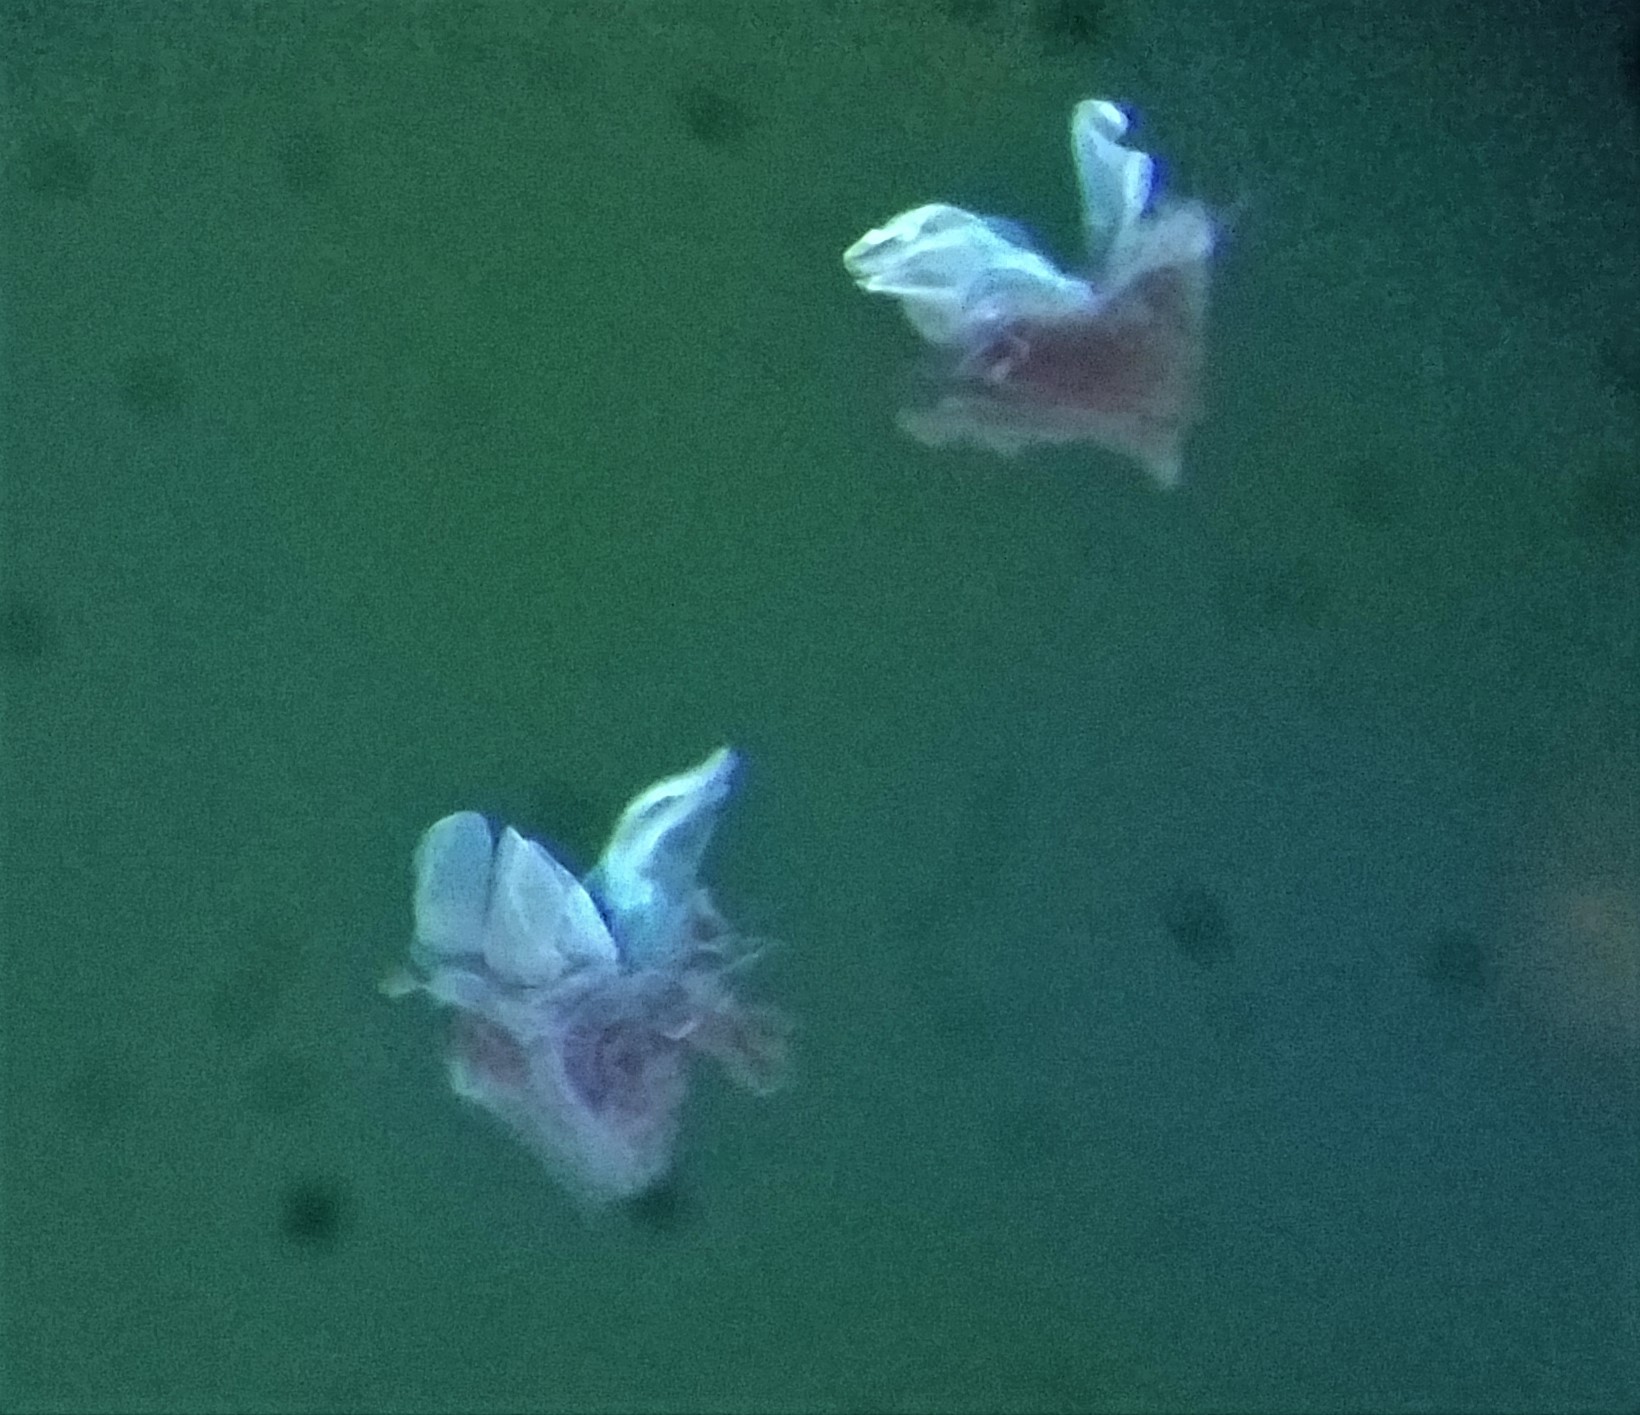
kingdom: Animalia
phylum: Arthropoda
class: Diplopoda
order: Julida
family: Julidae
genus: Cylindroiulus
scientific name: Cylindroiulus truncorum
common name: Millipede
